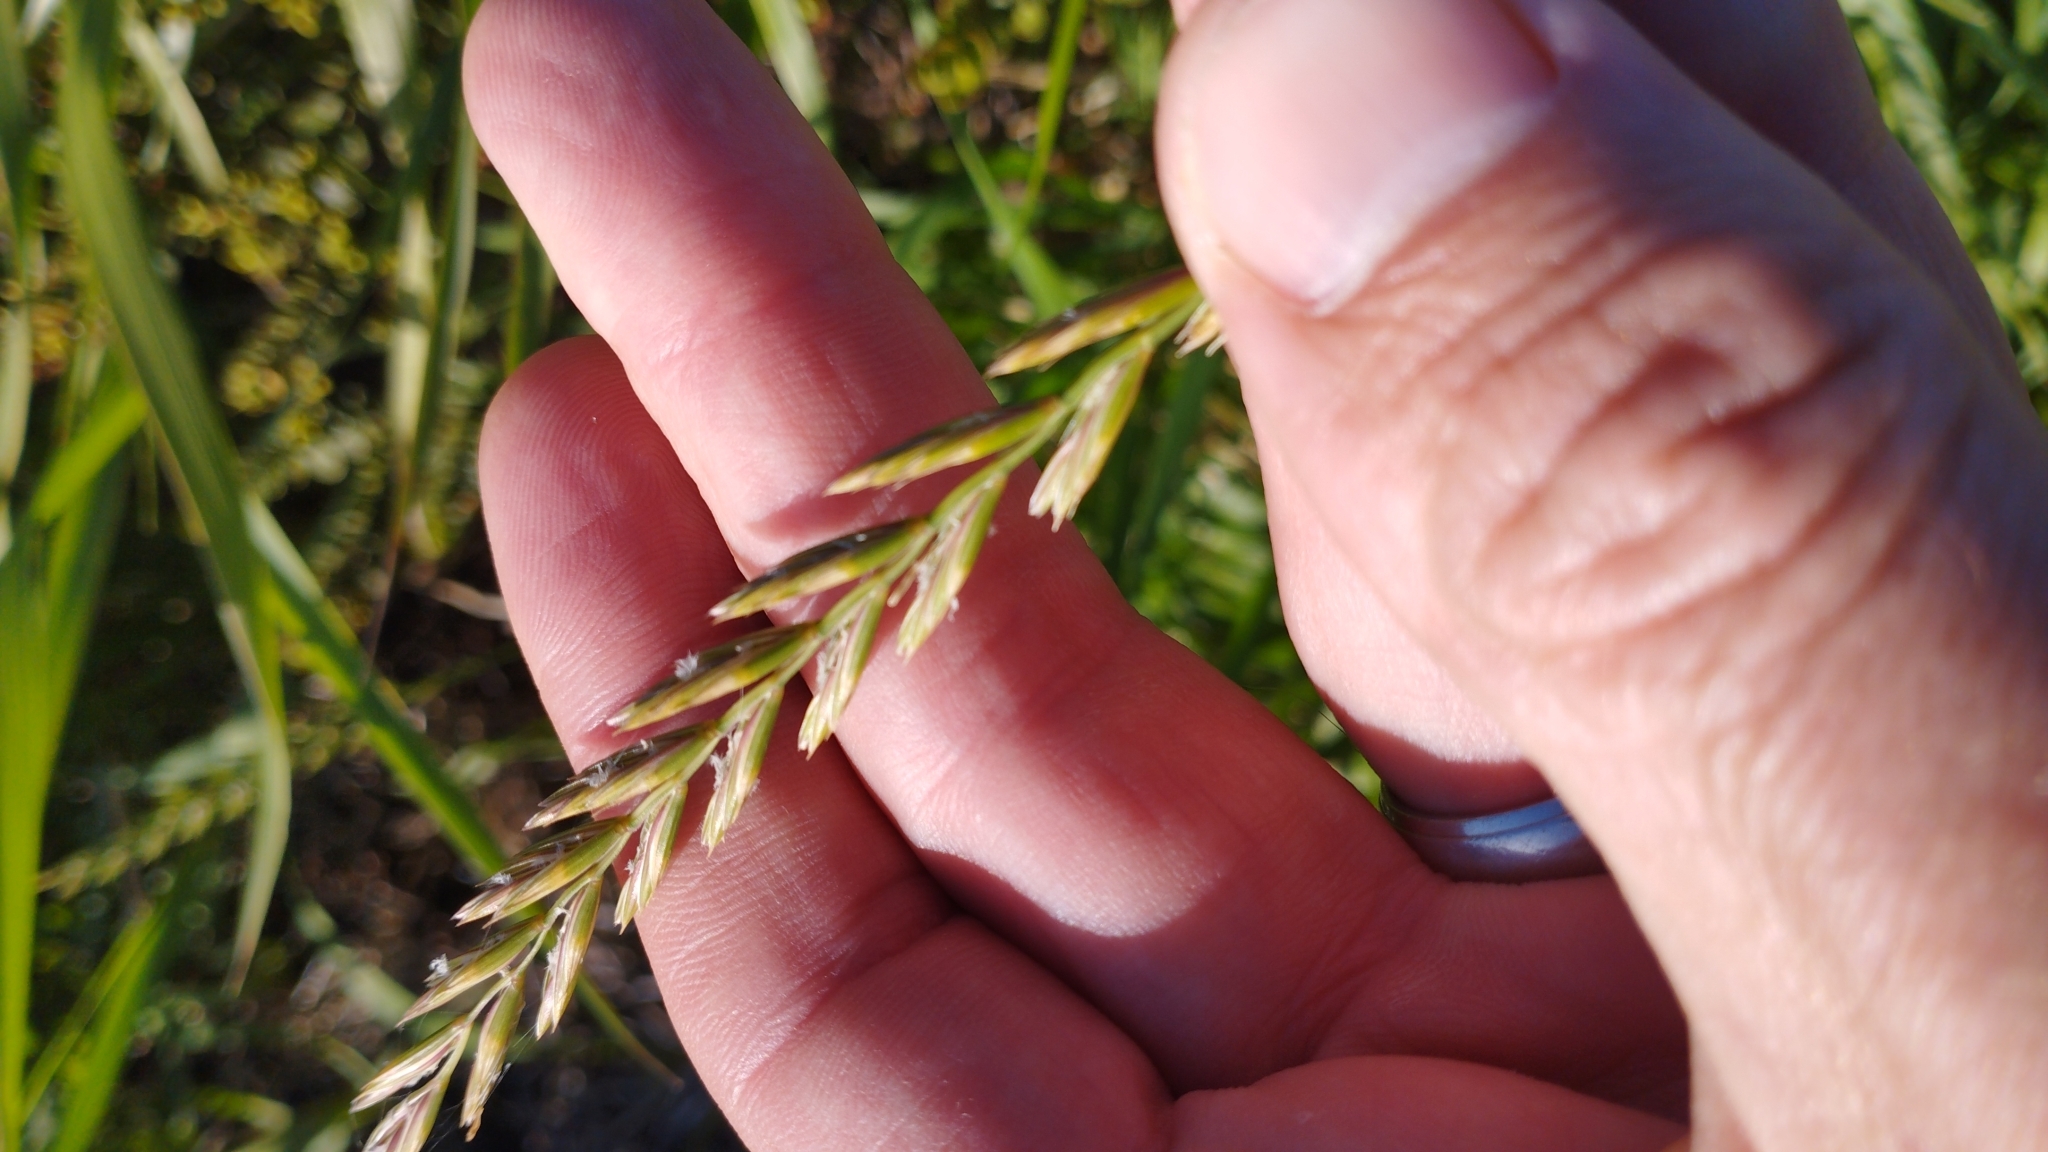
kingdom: Plantae
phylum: Tracheophyta
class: Liliopsida
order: Poales
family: Poaceae
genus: Elymus
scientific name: Elymus repens
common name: Quackgrass
